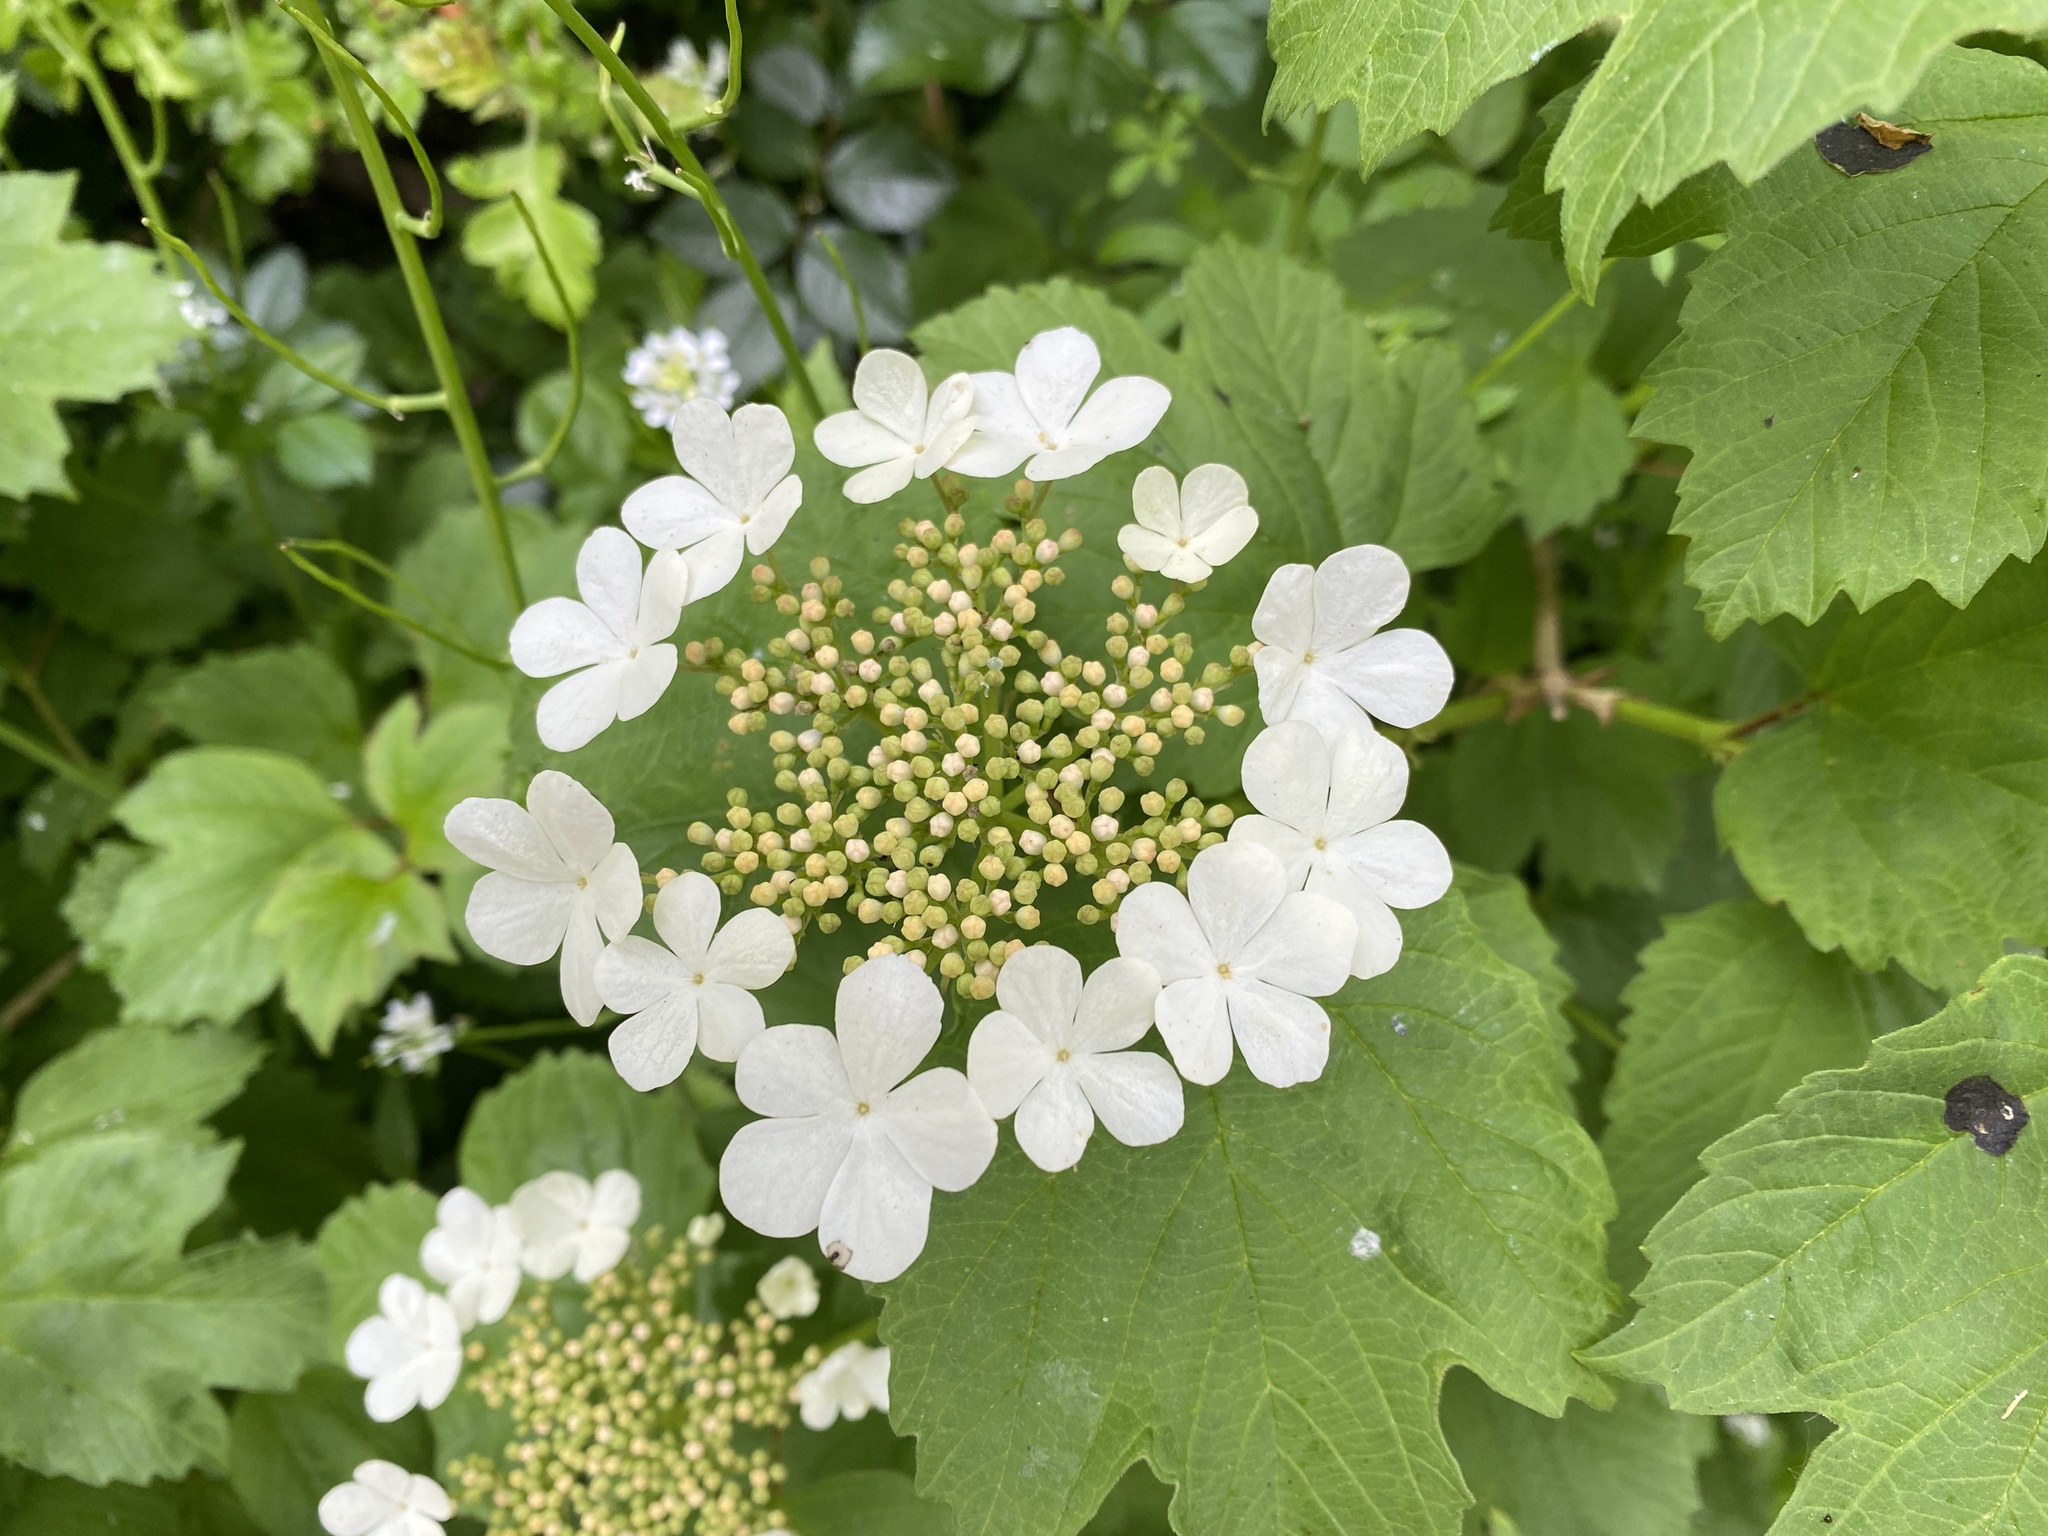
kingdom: Plantae
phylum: Tracheophyta
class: Magnoliopsida
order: Dipsacales
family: Viburnaceae
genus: Viburnum
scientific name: Viburnum opulus
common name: Guelder-rose
